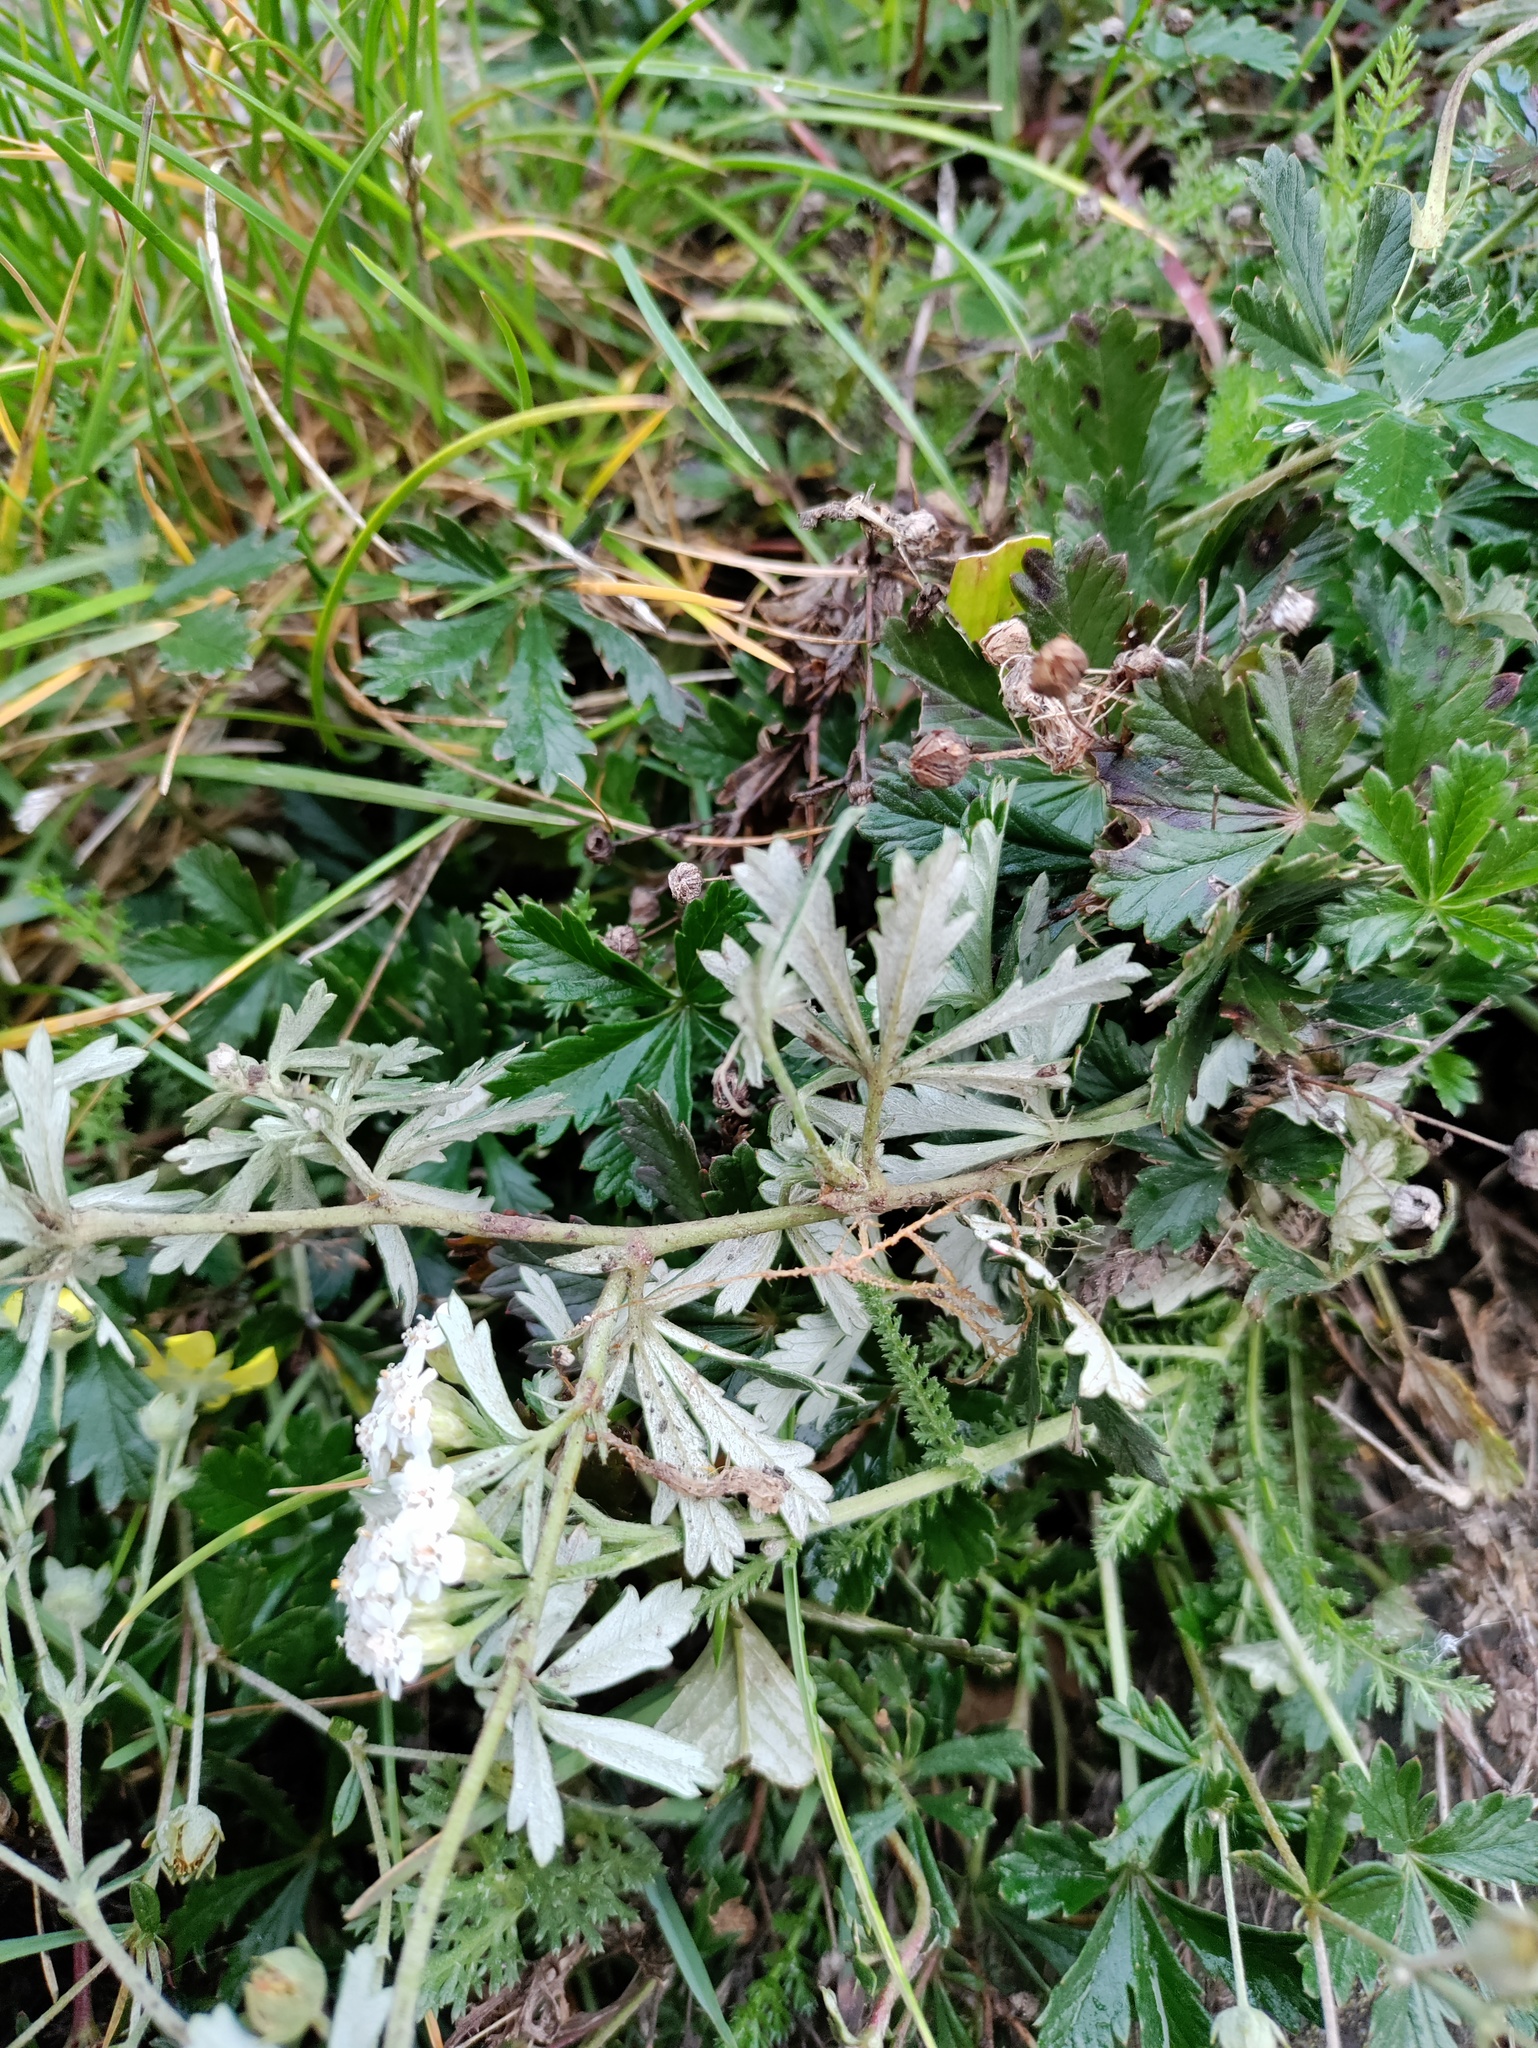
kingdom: Plantae
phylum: Tracheophyta
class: Magnoliopsida
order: Rosales
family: Rosaceae
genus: Potentilla
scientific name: Potentilla argentea
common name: Hoary cinquefoil
